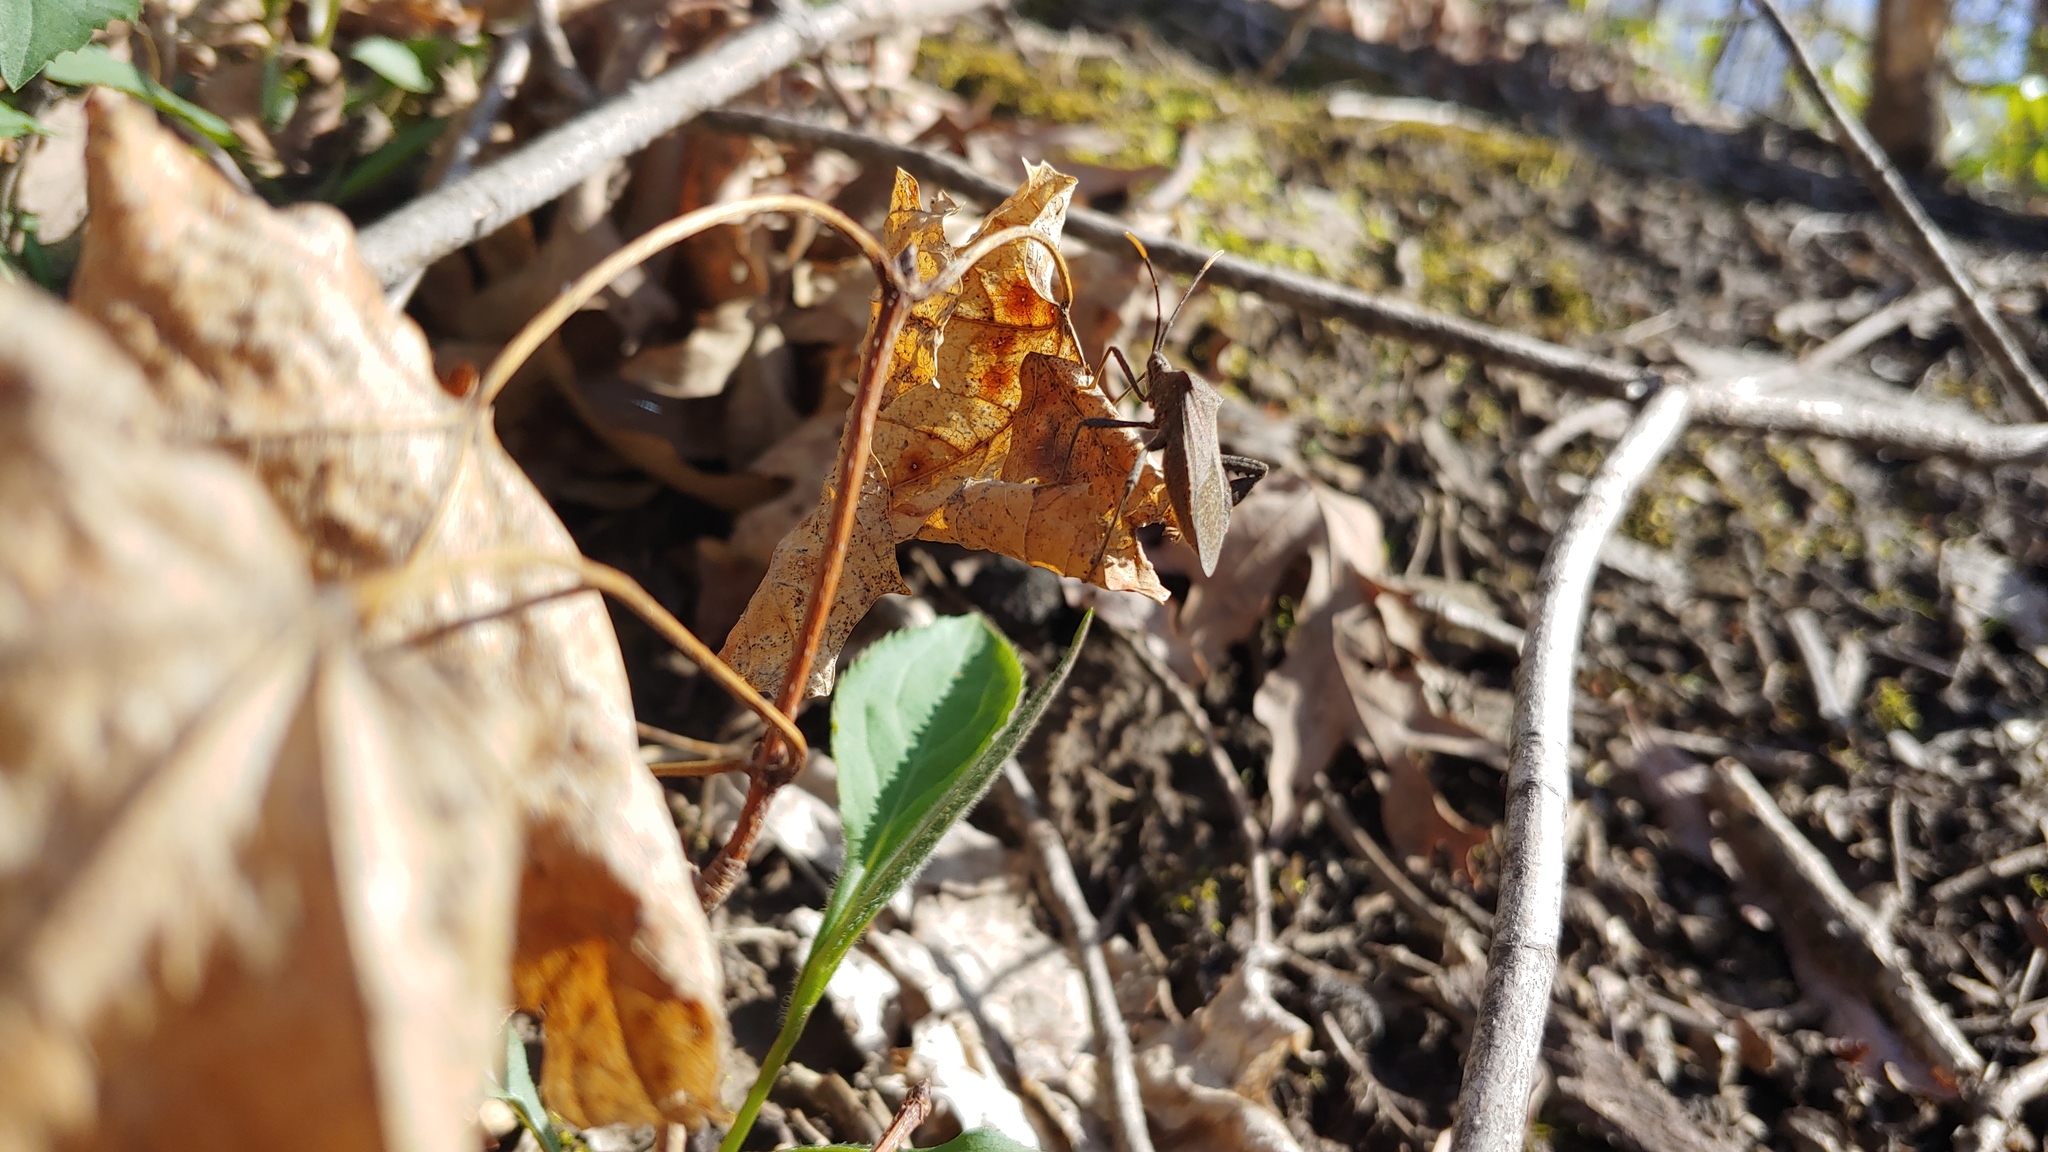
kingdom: Animalia
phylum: Arthropoda
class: Insecta
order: Hemiptera
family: Coreidae
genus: Acanthocephala
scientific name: Acanthocephala terminalis
